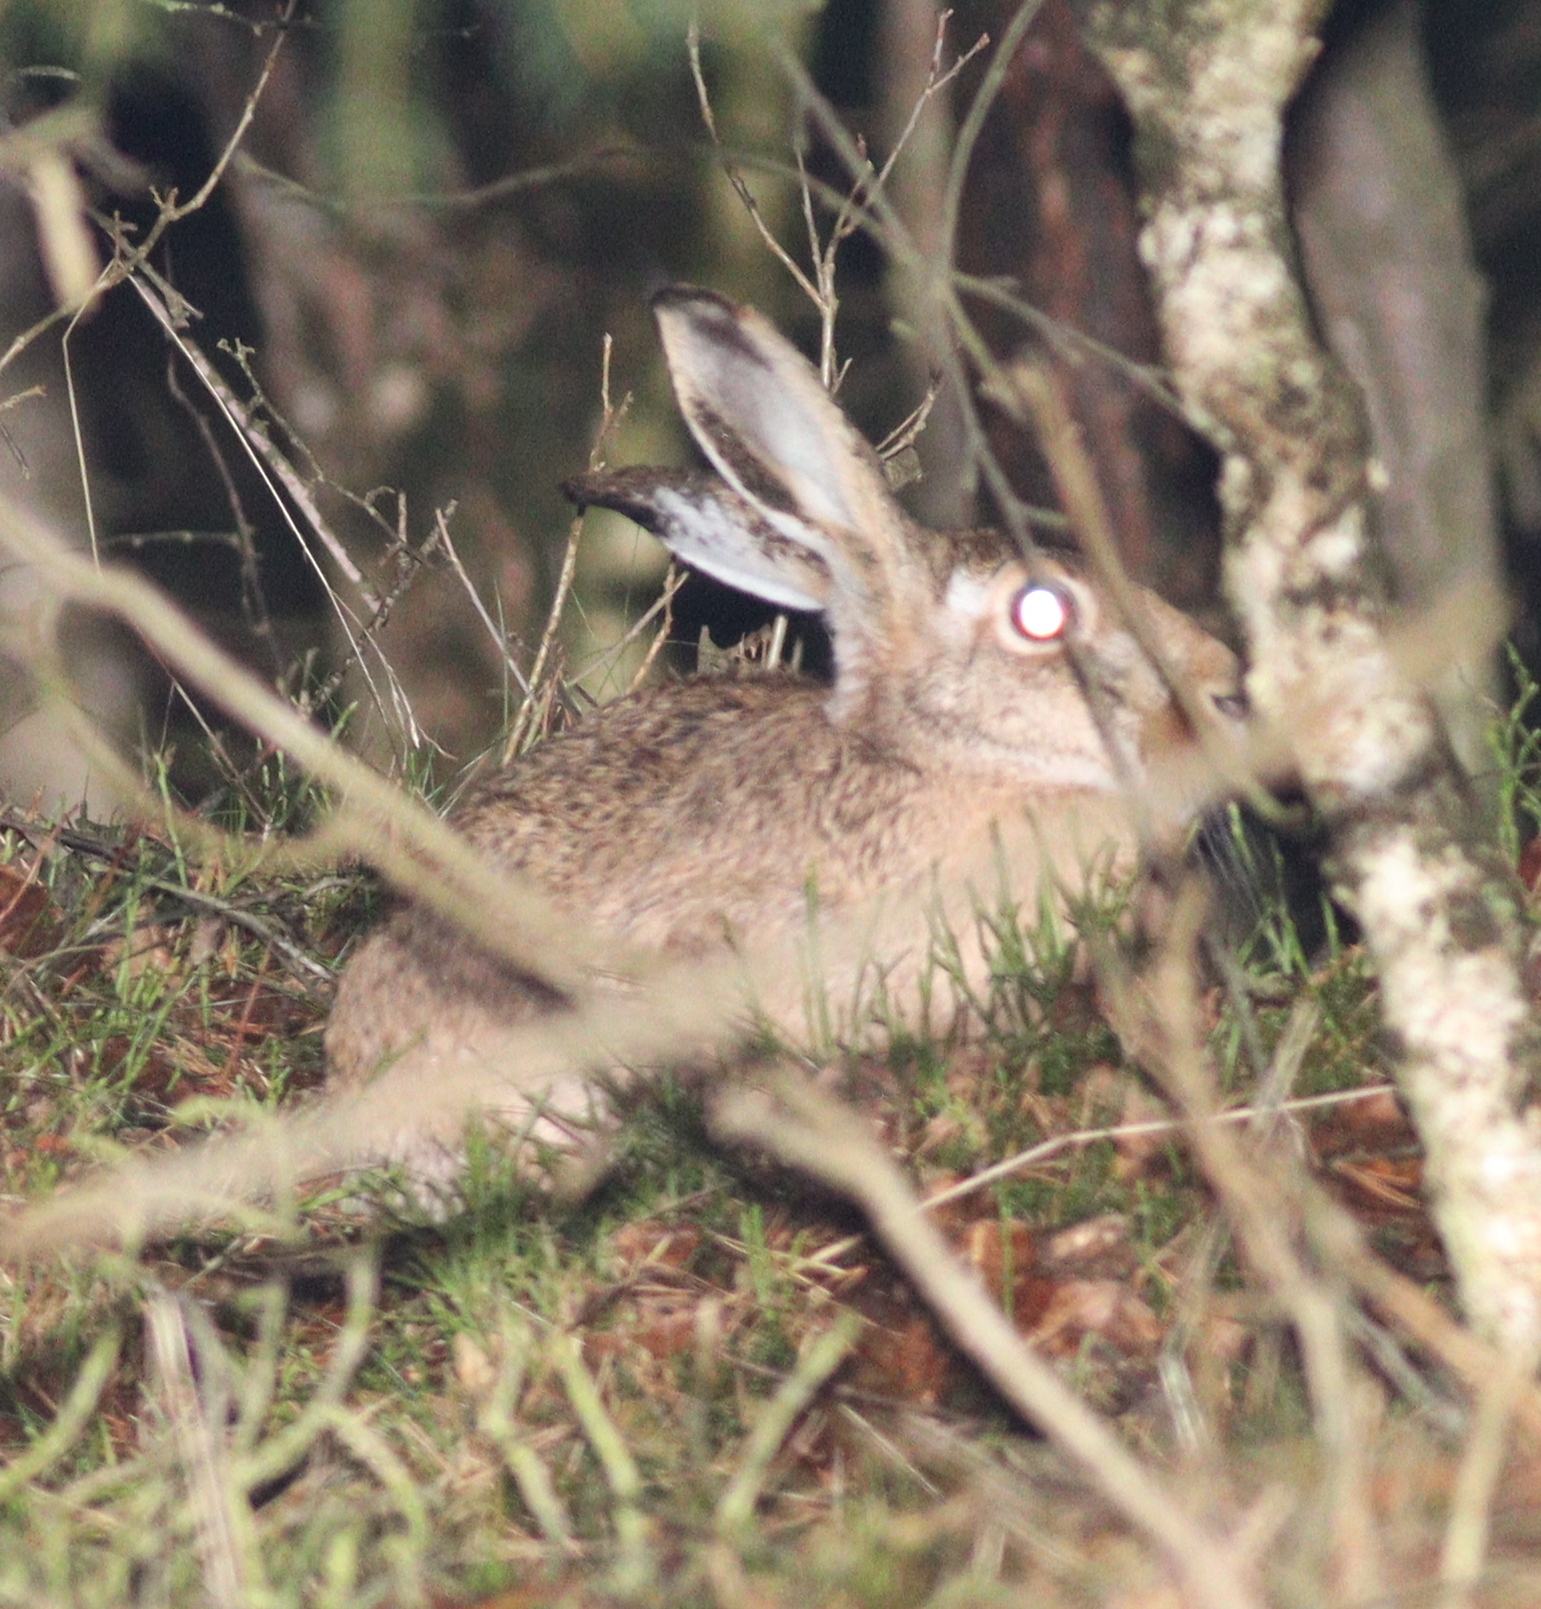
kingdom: Animalia
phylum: Chordata
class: Mammalia
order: Lagomorpha
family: Leporidae
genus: Lepus
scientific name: Lepus europaeus
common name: European hare
